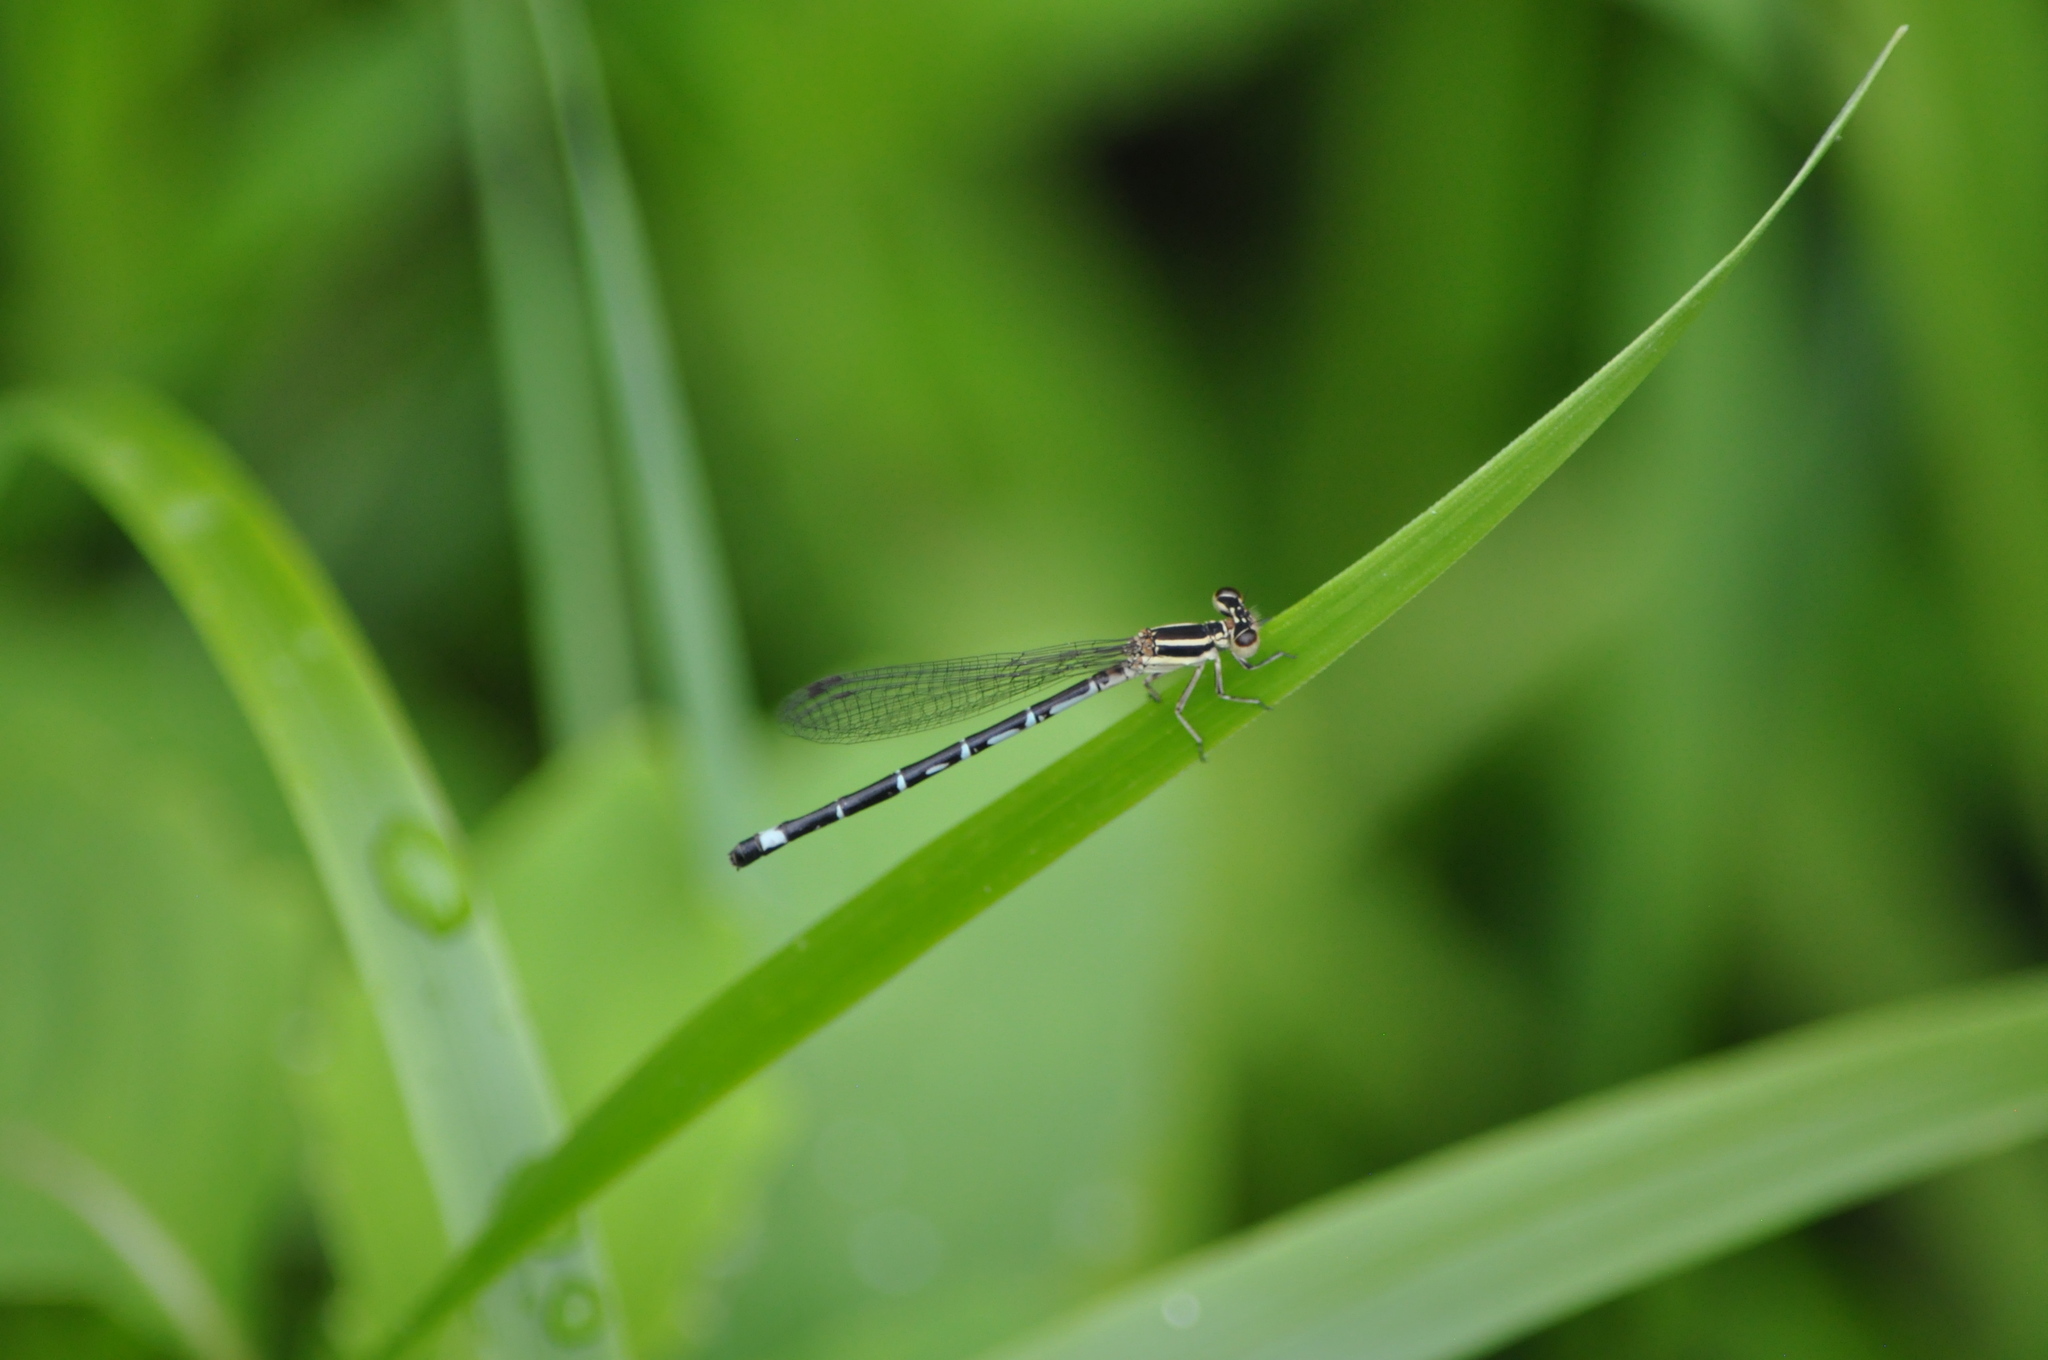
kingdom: Animalia
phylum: Arthropoda
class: Insecta
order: Odonata
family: Coenagrionidae
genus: Argia
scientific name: Argia bipunctulata
